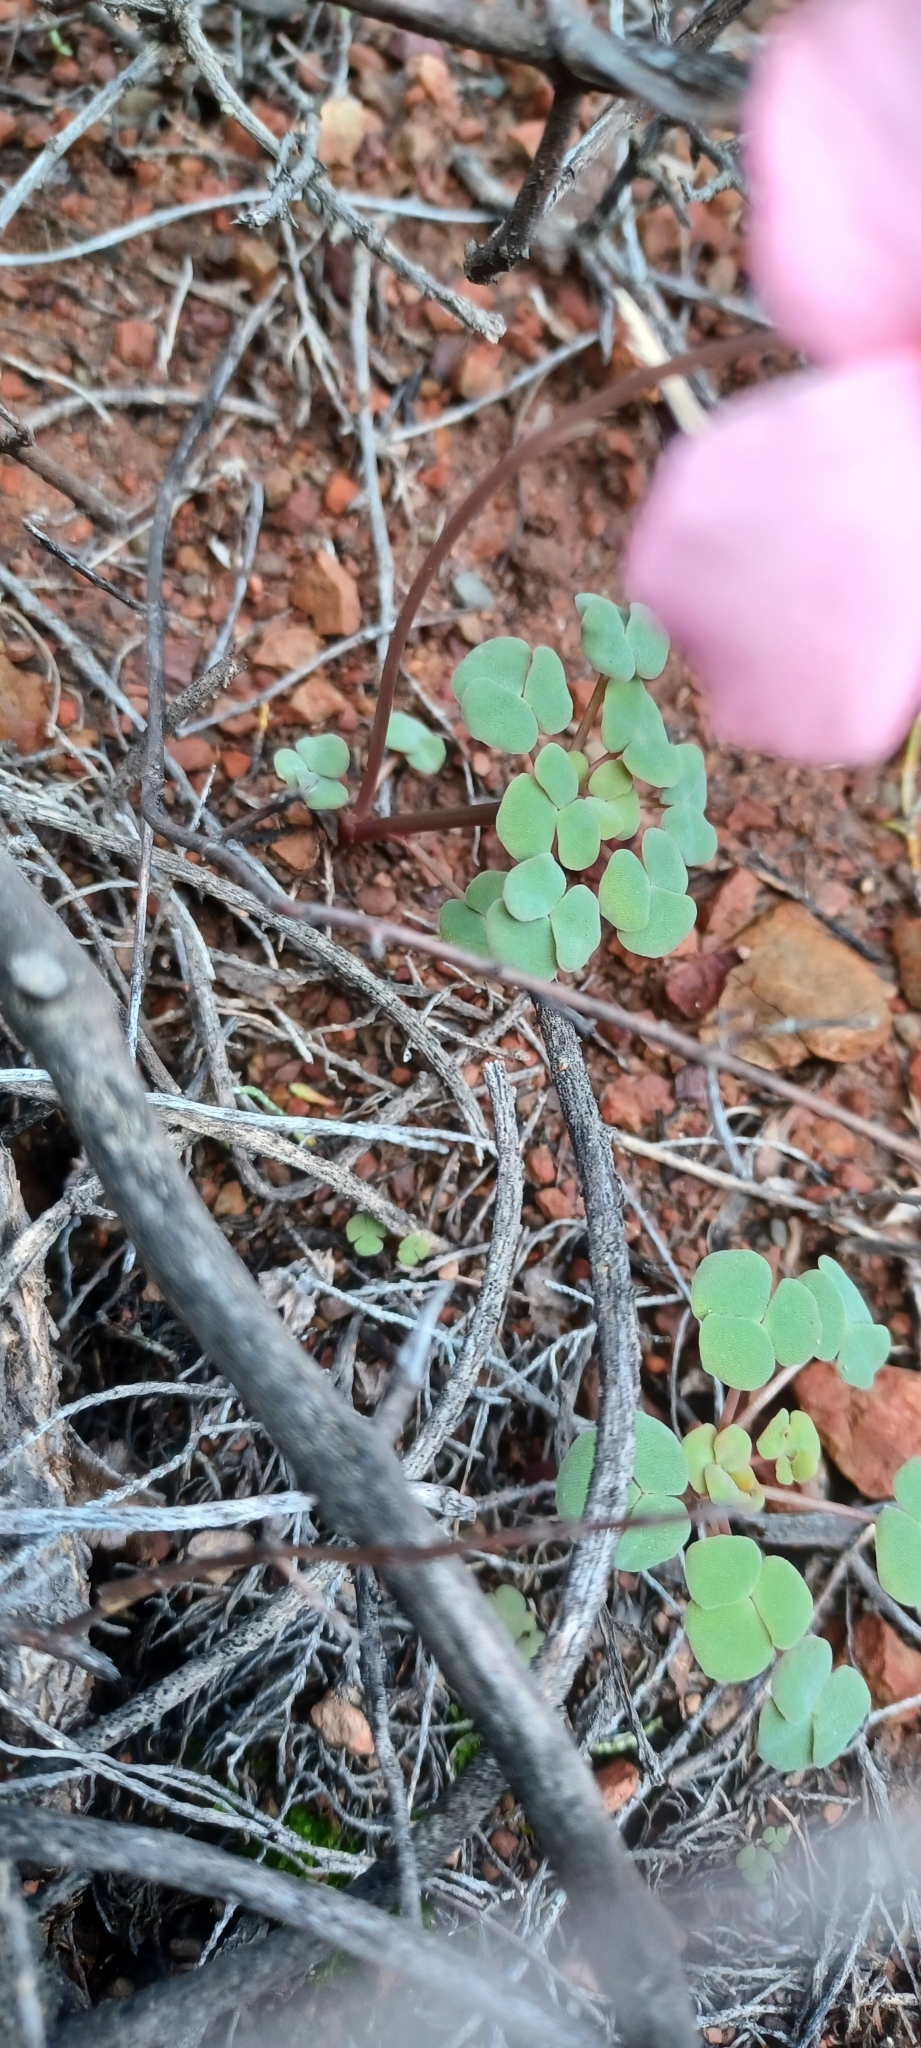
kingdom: Plantae
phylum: Tracheophyta
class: Magnoliopsida
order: Oxalidales
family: Oxalidaceae
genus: Oxalis
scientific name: Oxalis convexula
